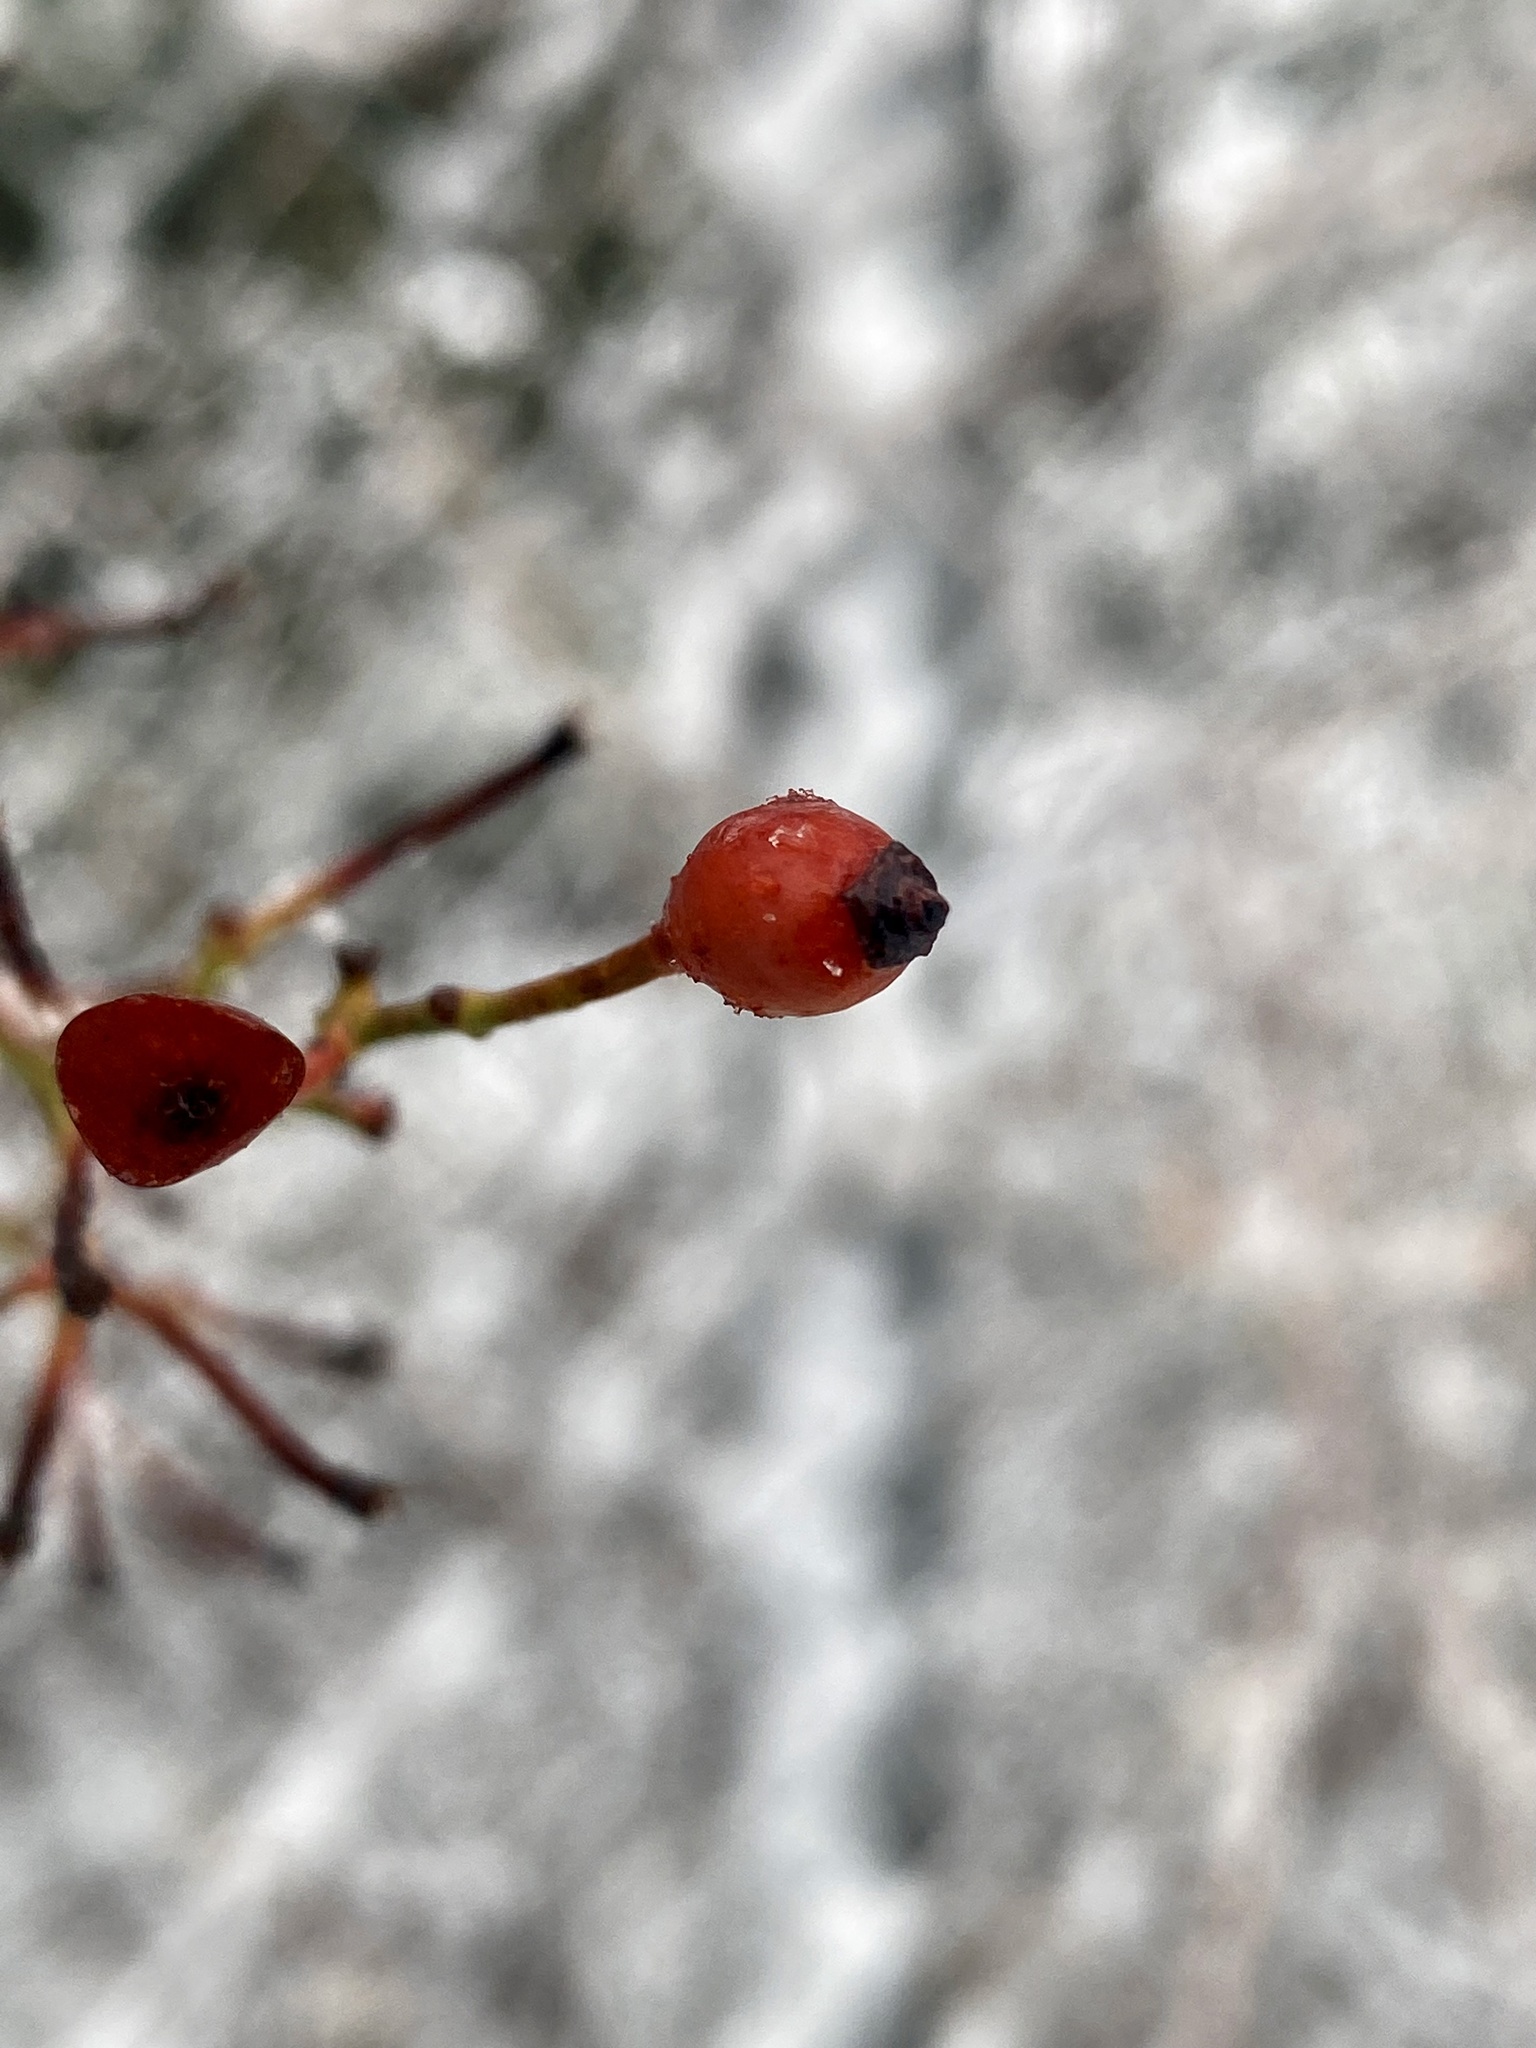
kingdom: Plantae
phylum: Tracheophyta
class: Magnoliopsida
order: Rosales
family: Rosaceae
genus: Rosa
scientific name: Rosa multiflora
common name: Multiflora rose
